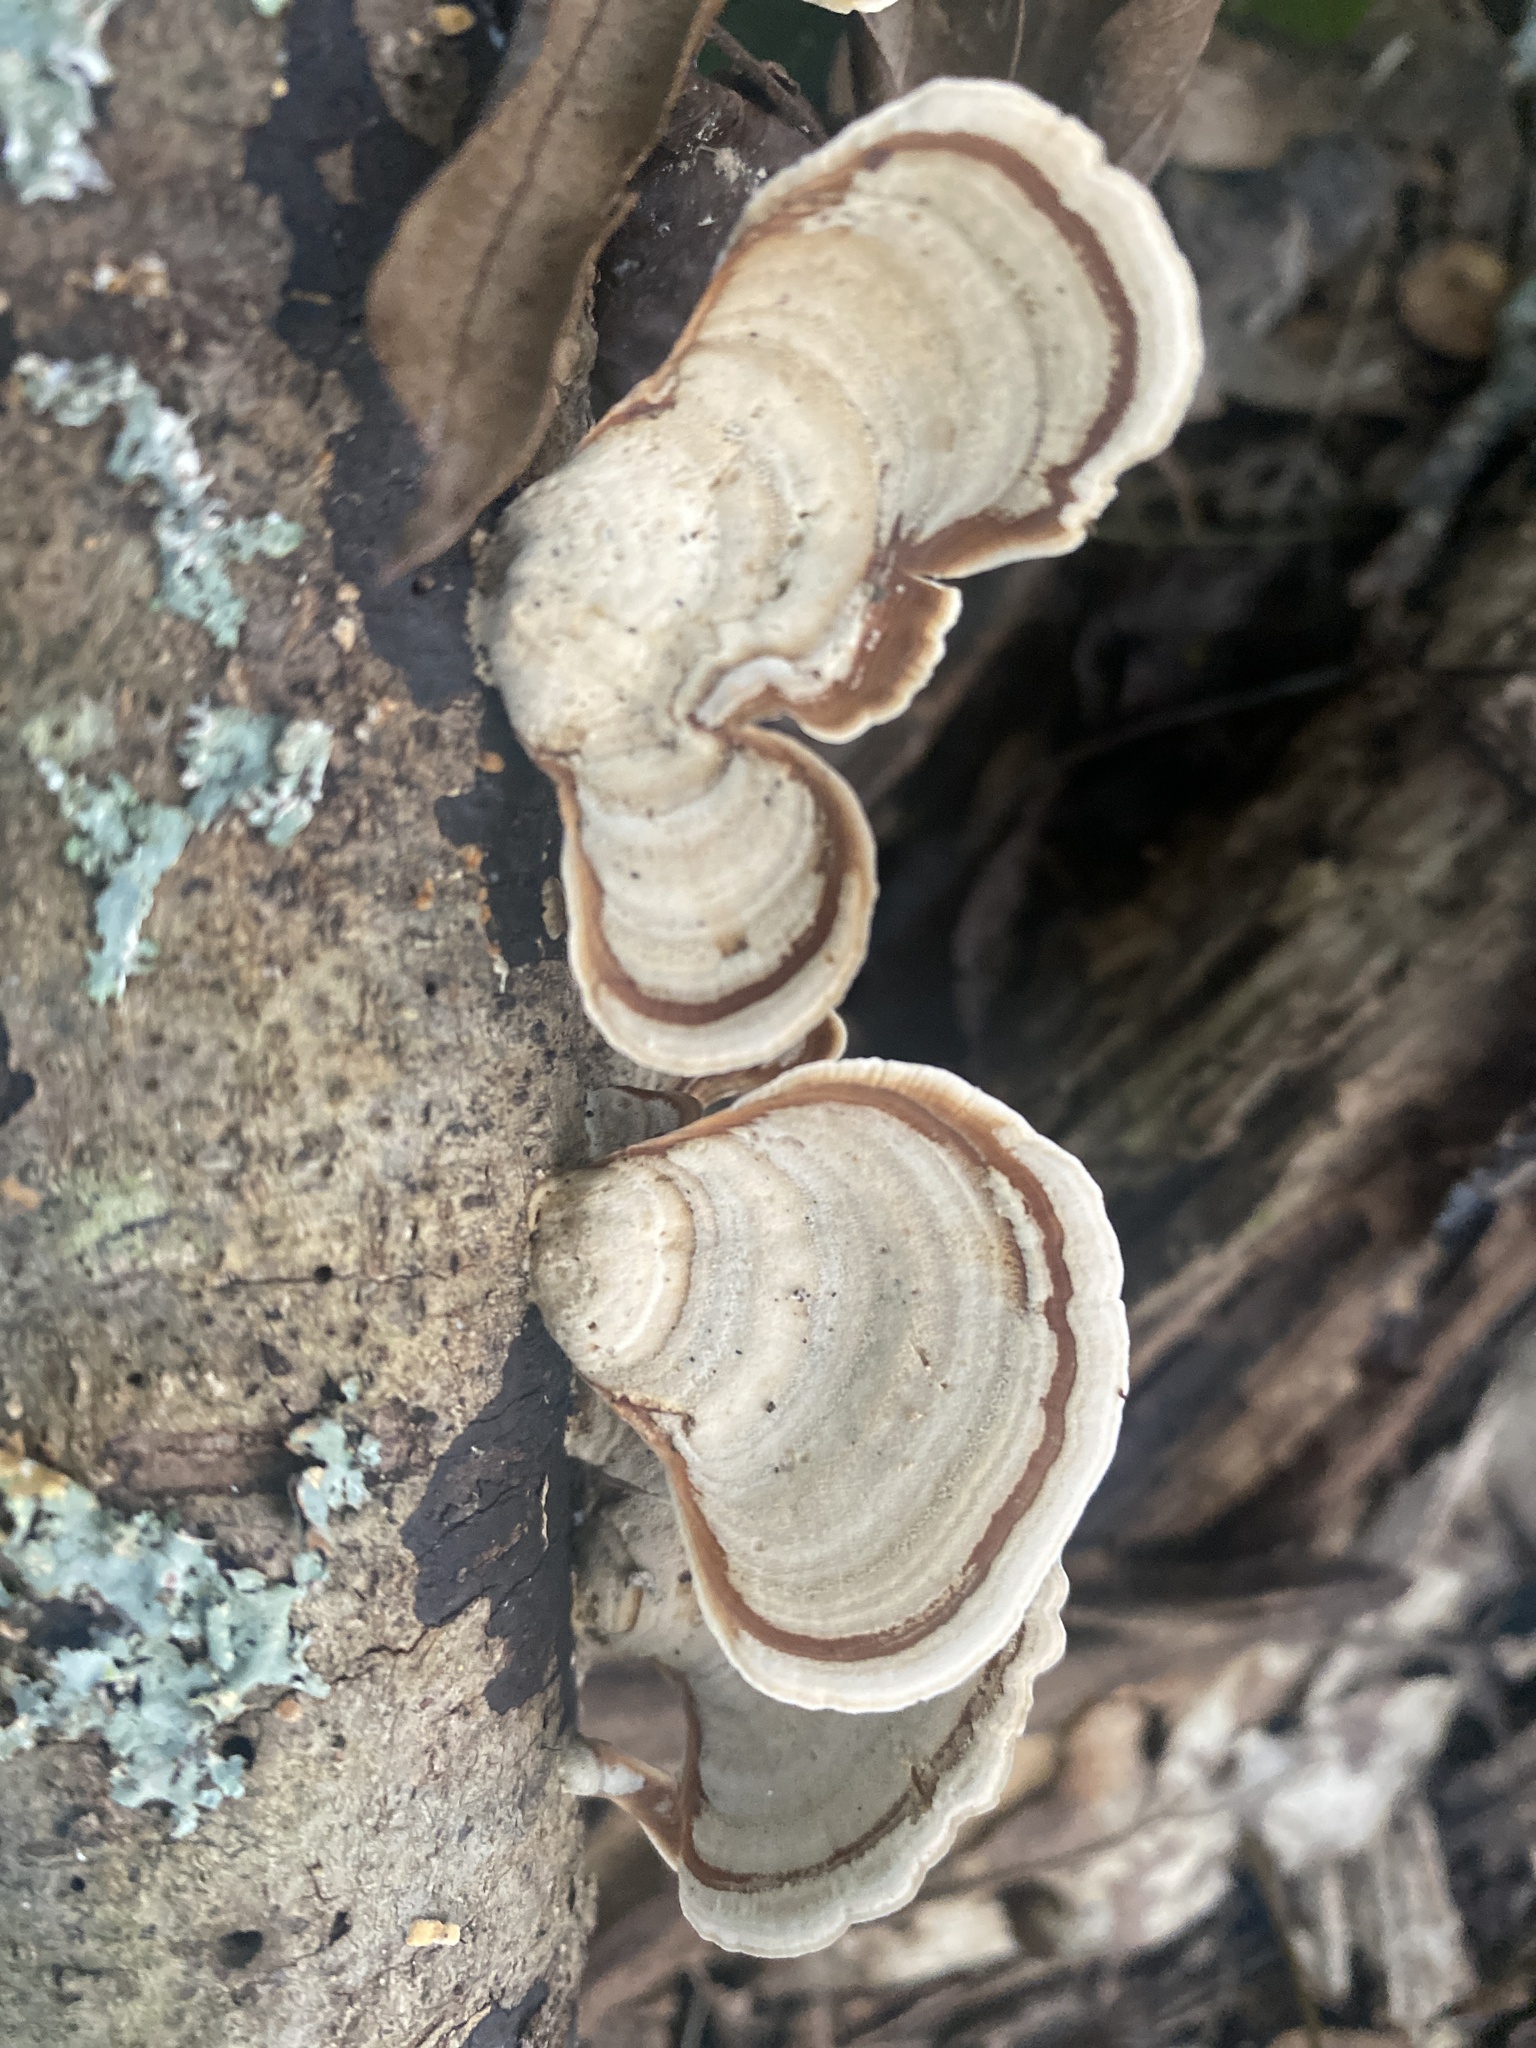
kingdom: Fungi
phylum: Basidiomycota
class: Agaricomycetes
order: Russulales
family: Stereaceae
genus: Stereum
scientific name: Stereum lobatum
